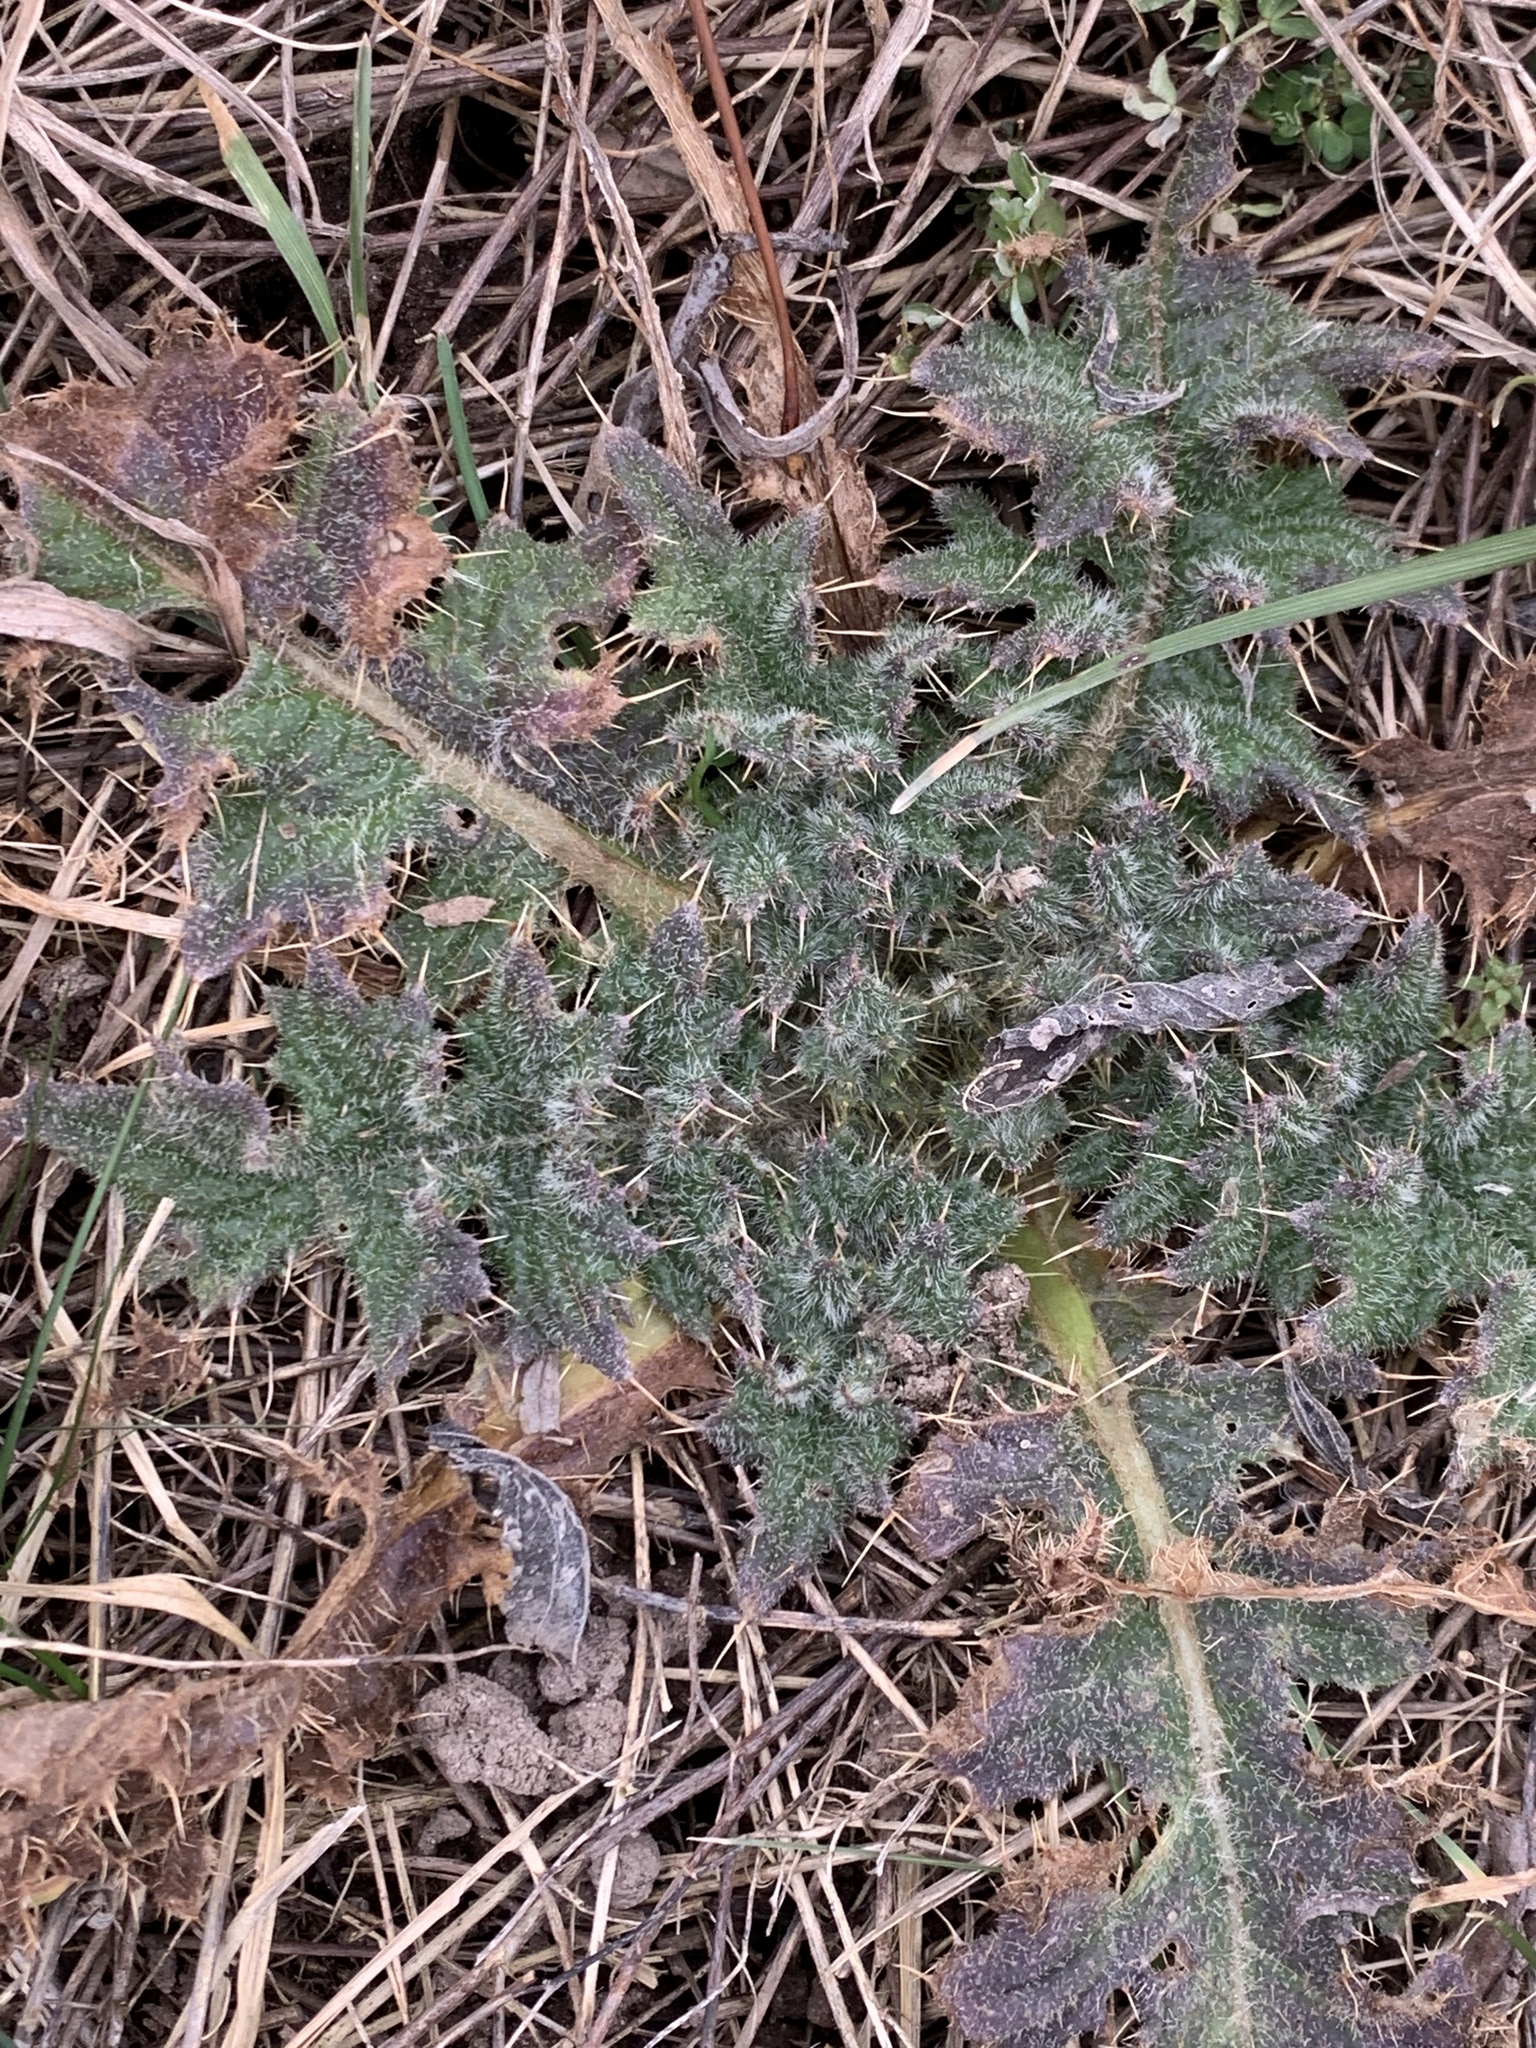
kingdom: Plantae
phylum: Tracheophyta
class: Magnoliopsida
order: Asterales
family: Asteraceae
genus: Cirsium
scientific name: Cirsium vulgare
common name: Bull thistle
